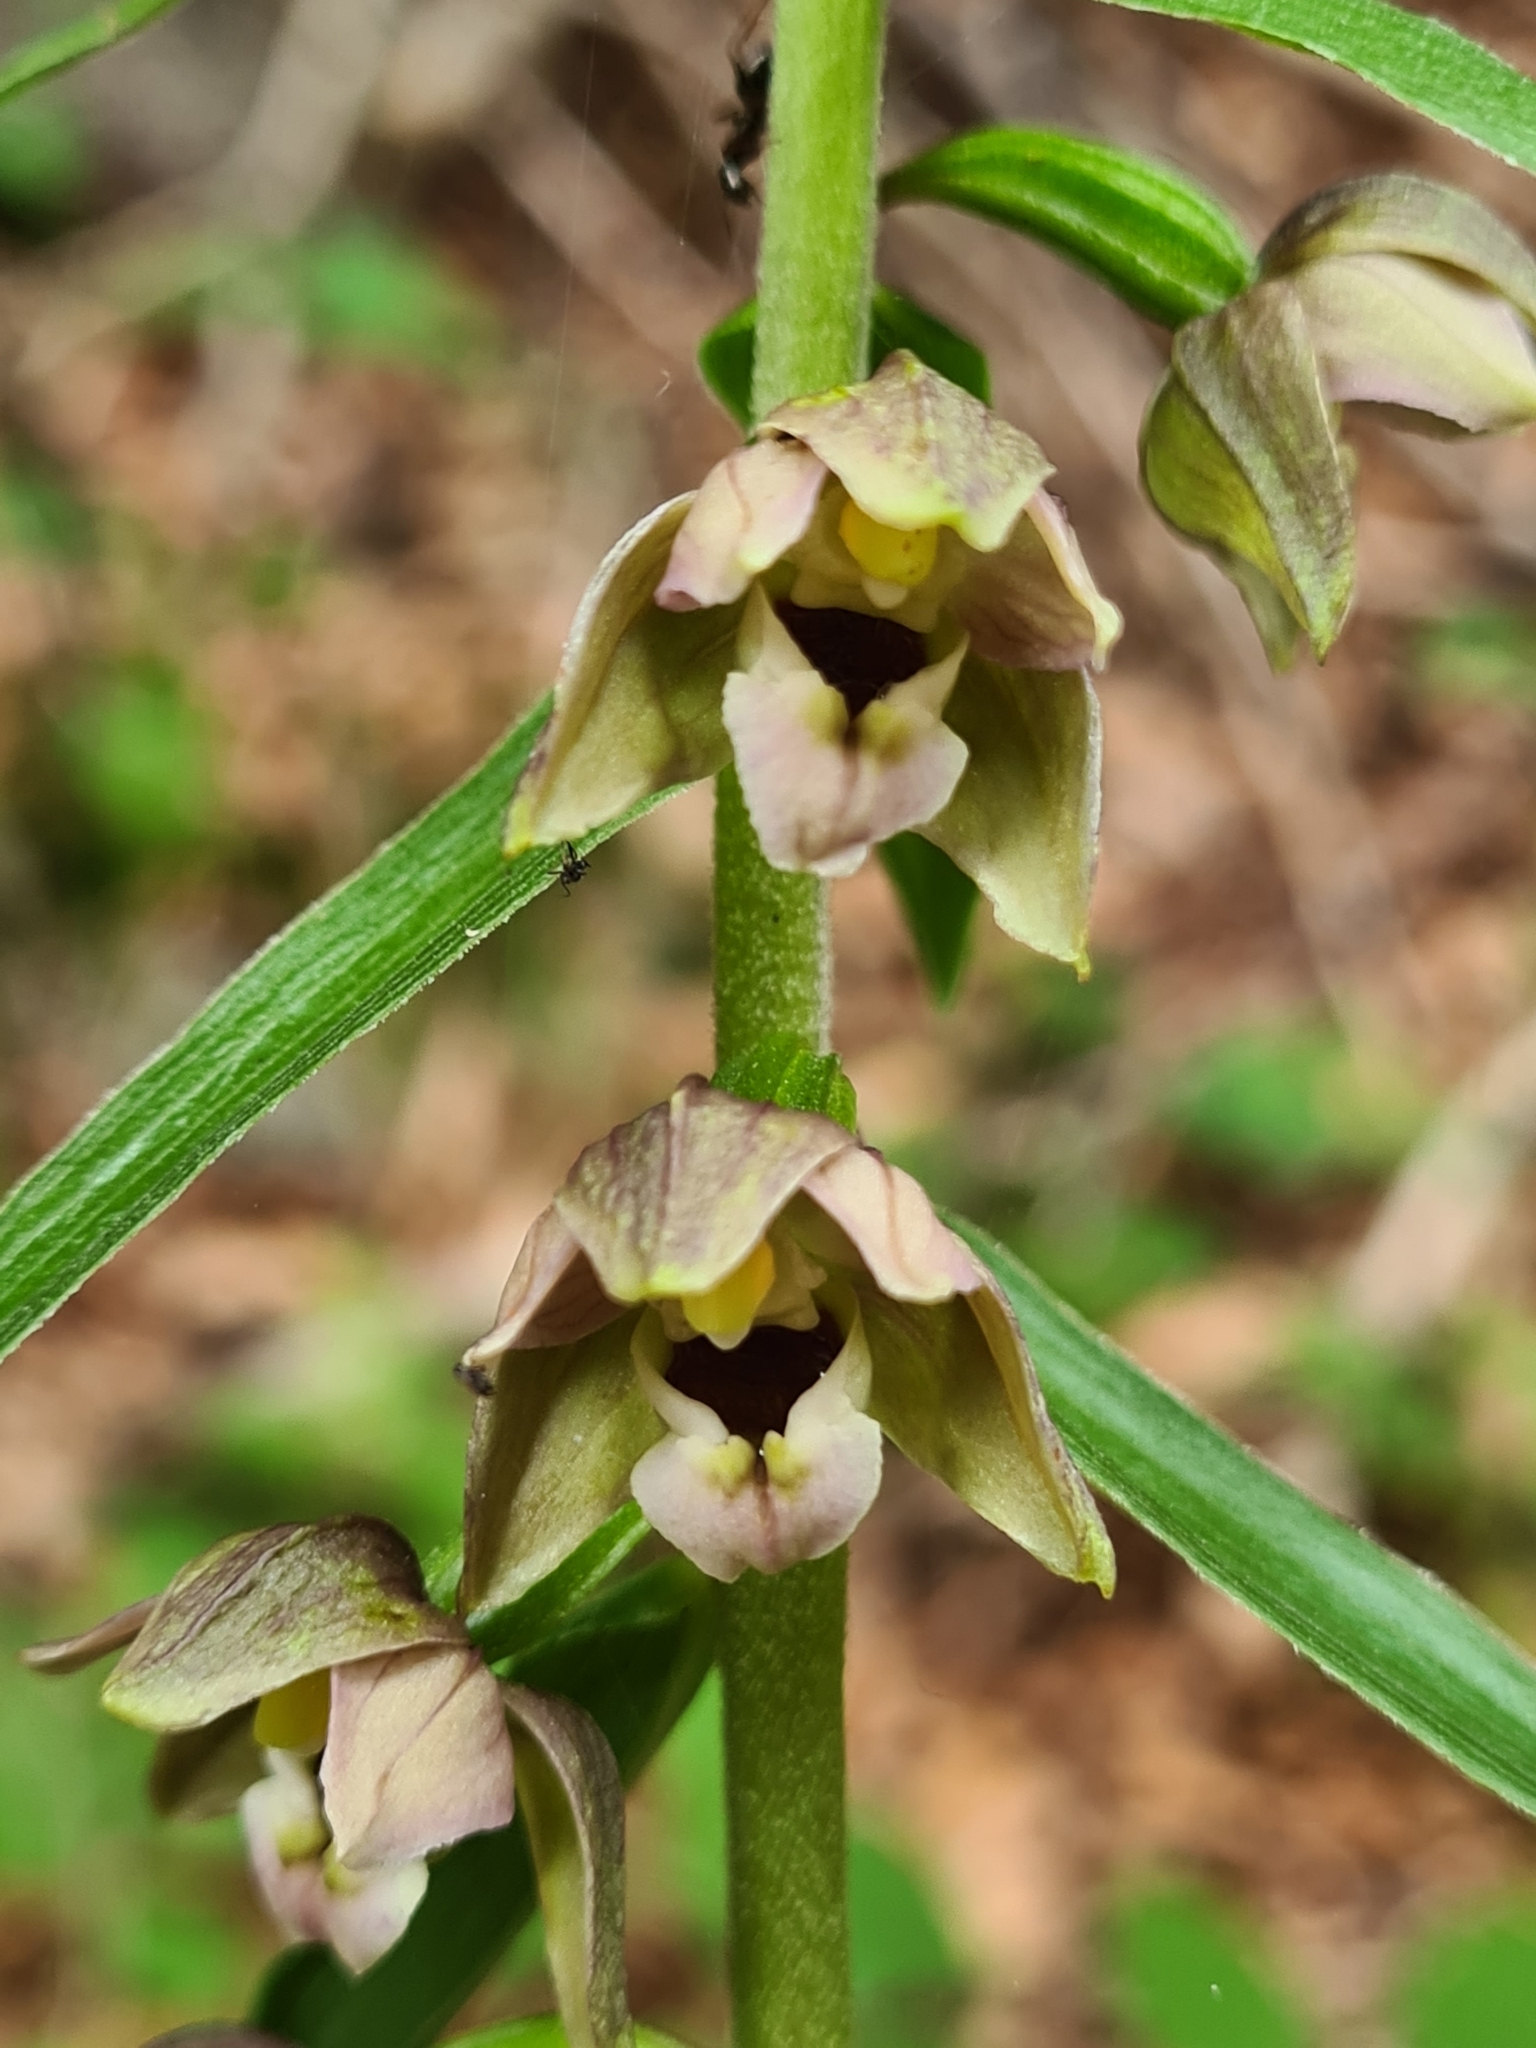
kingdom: Plantae
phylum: Tracheophyta
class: Liliopsida
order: Asparagales
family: Orchidaceae
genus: Epipactis
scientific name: Epipactis helleborine
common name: Broad-leaved helleborine
